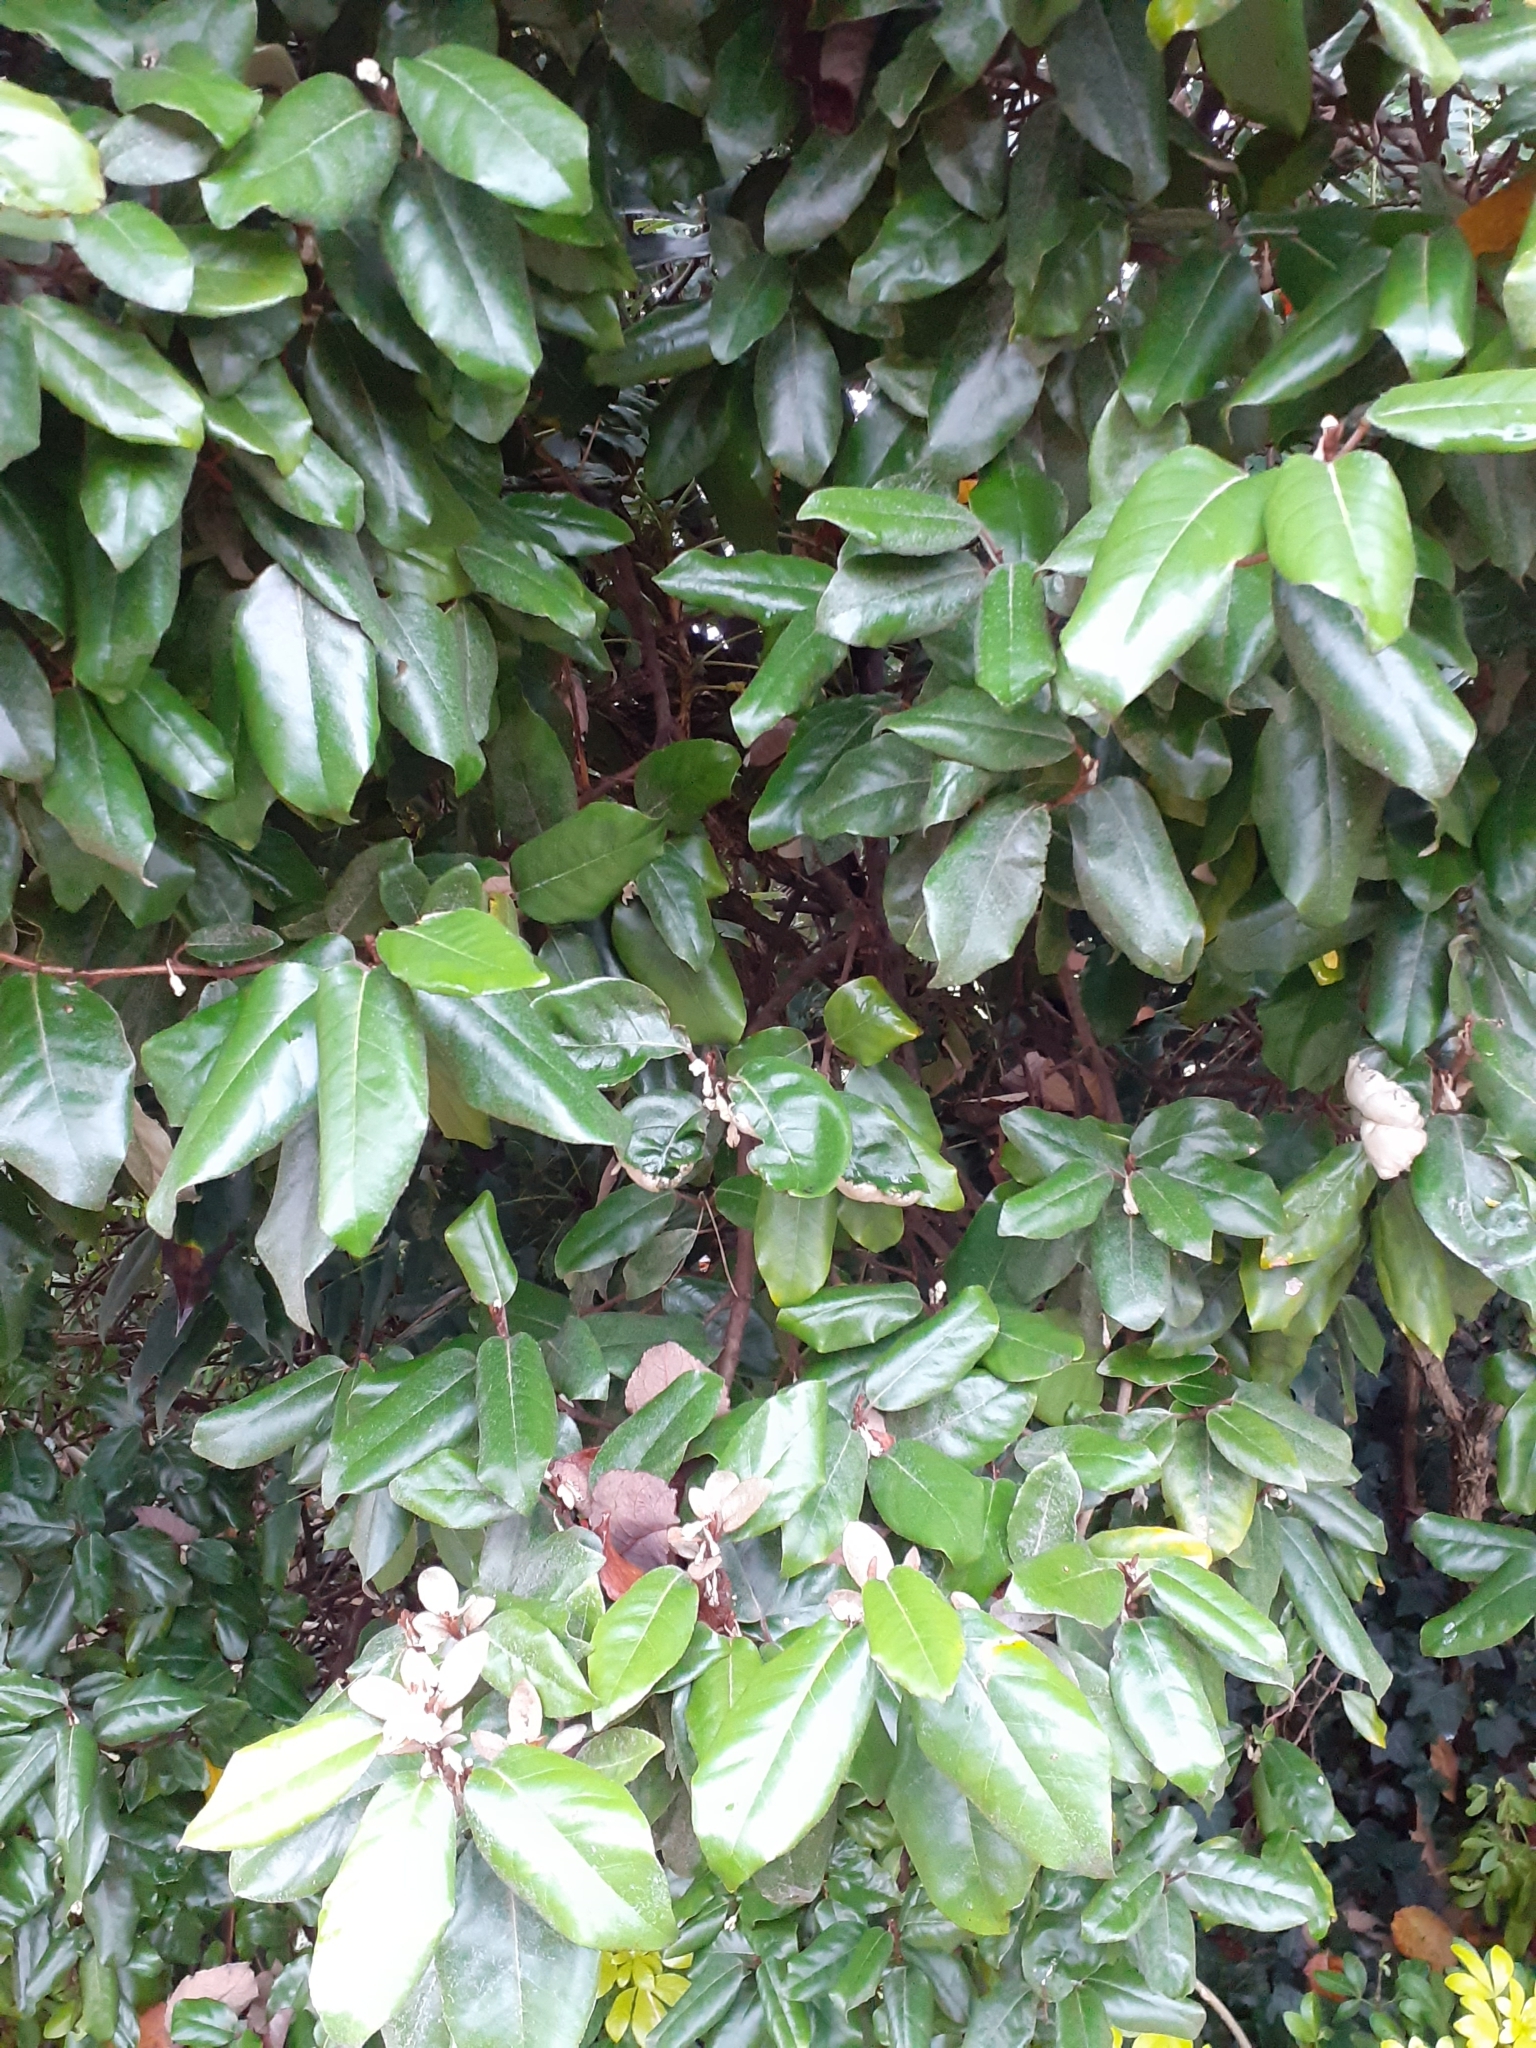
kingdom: Plantae
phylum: Tracheophyta
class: Magnoliopsida
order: Rosales
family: Elaeagnaceae
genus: Elaeagnus
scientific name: Elaeagnus pungens
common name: Spiny oleaster
